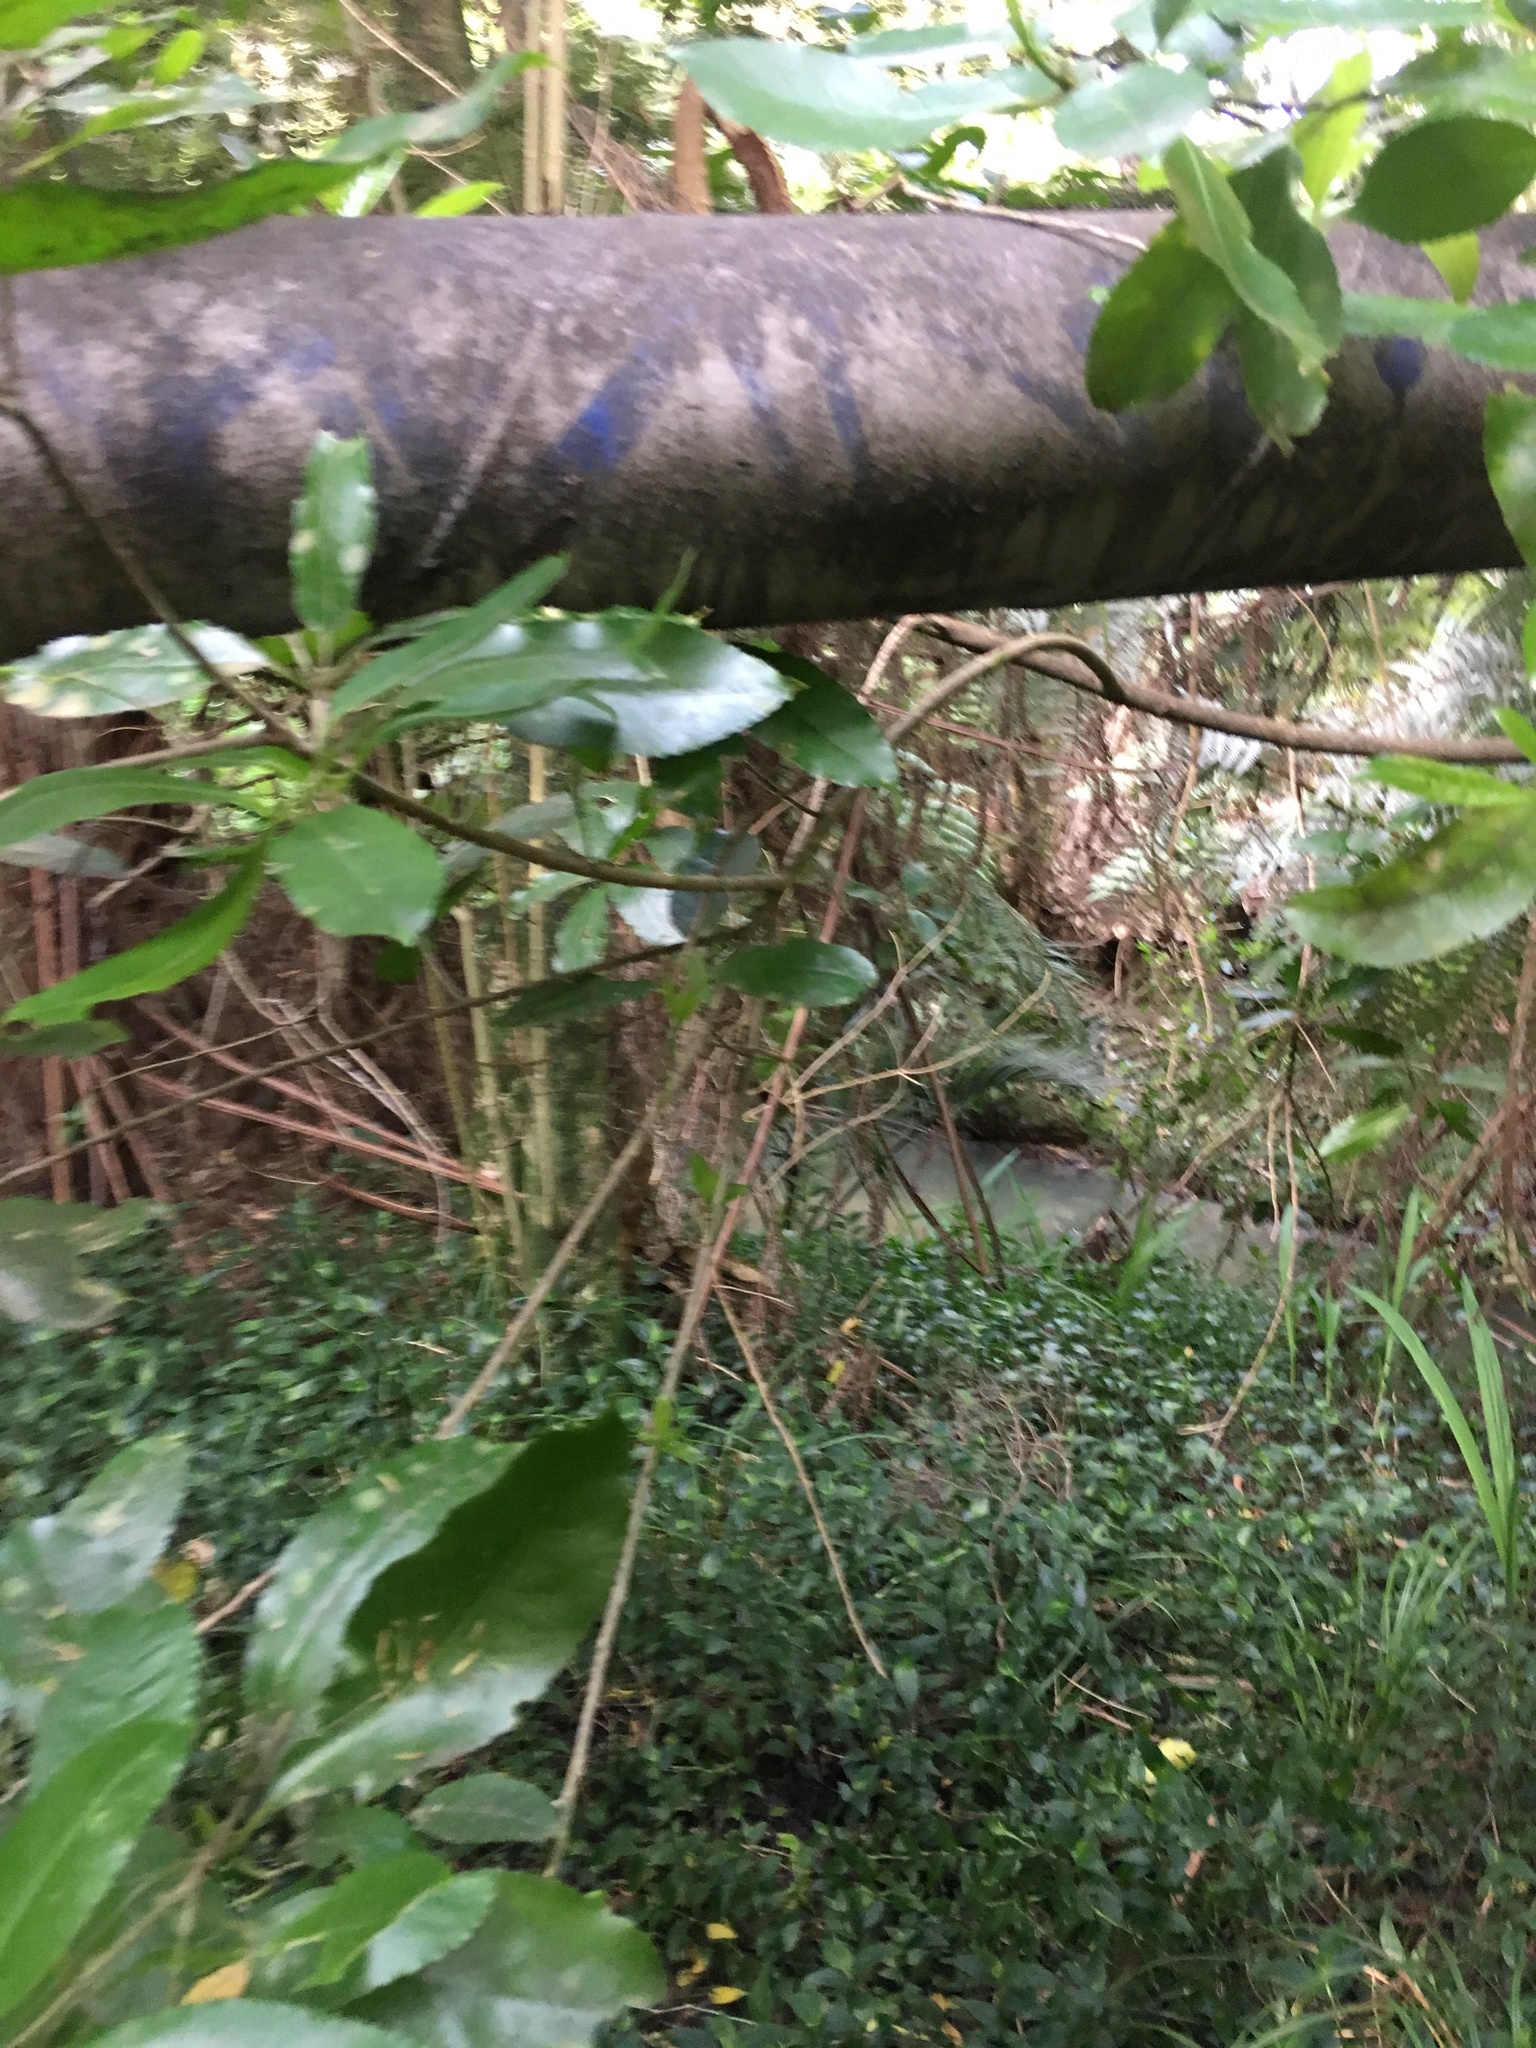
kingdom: Plantae
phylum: Tracheophyta
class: Liliopsida
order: Commelinales
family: Commelinaceae
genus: Tradescantia
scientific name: Tradescantia fluminensis
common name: Wandering-jew
